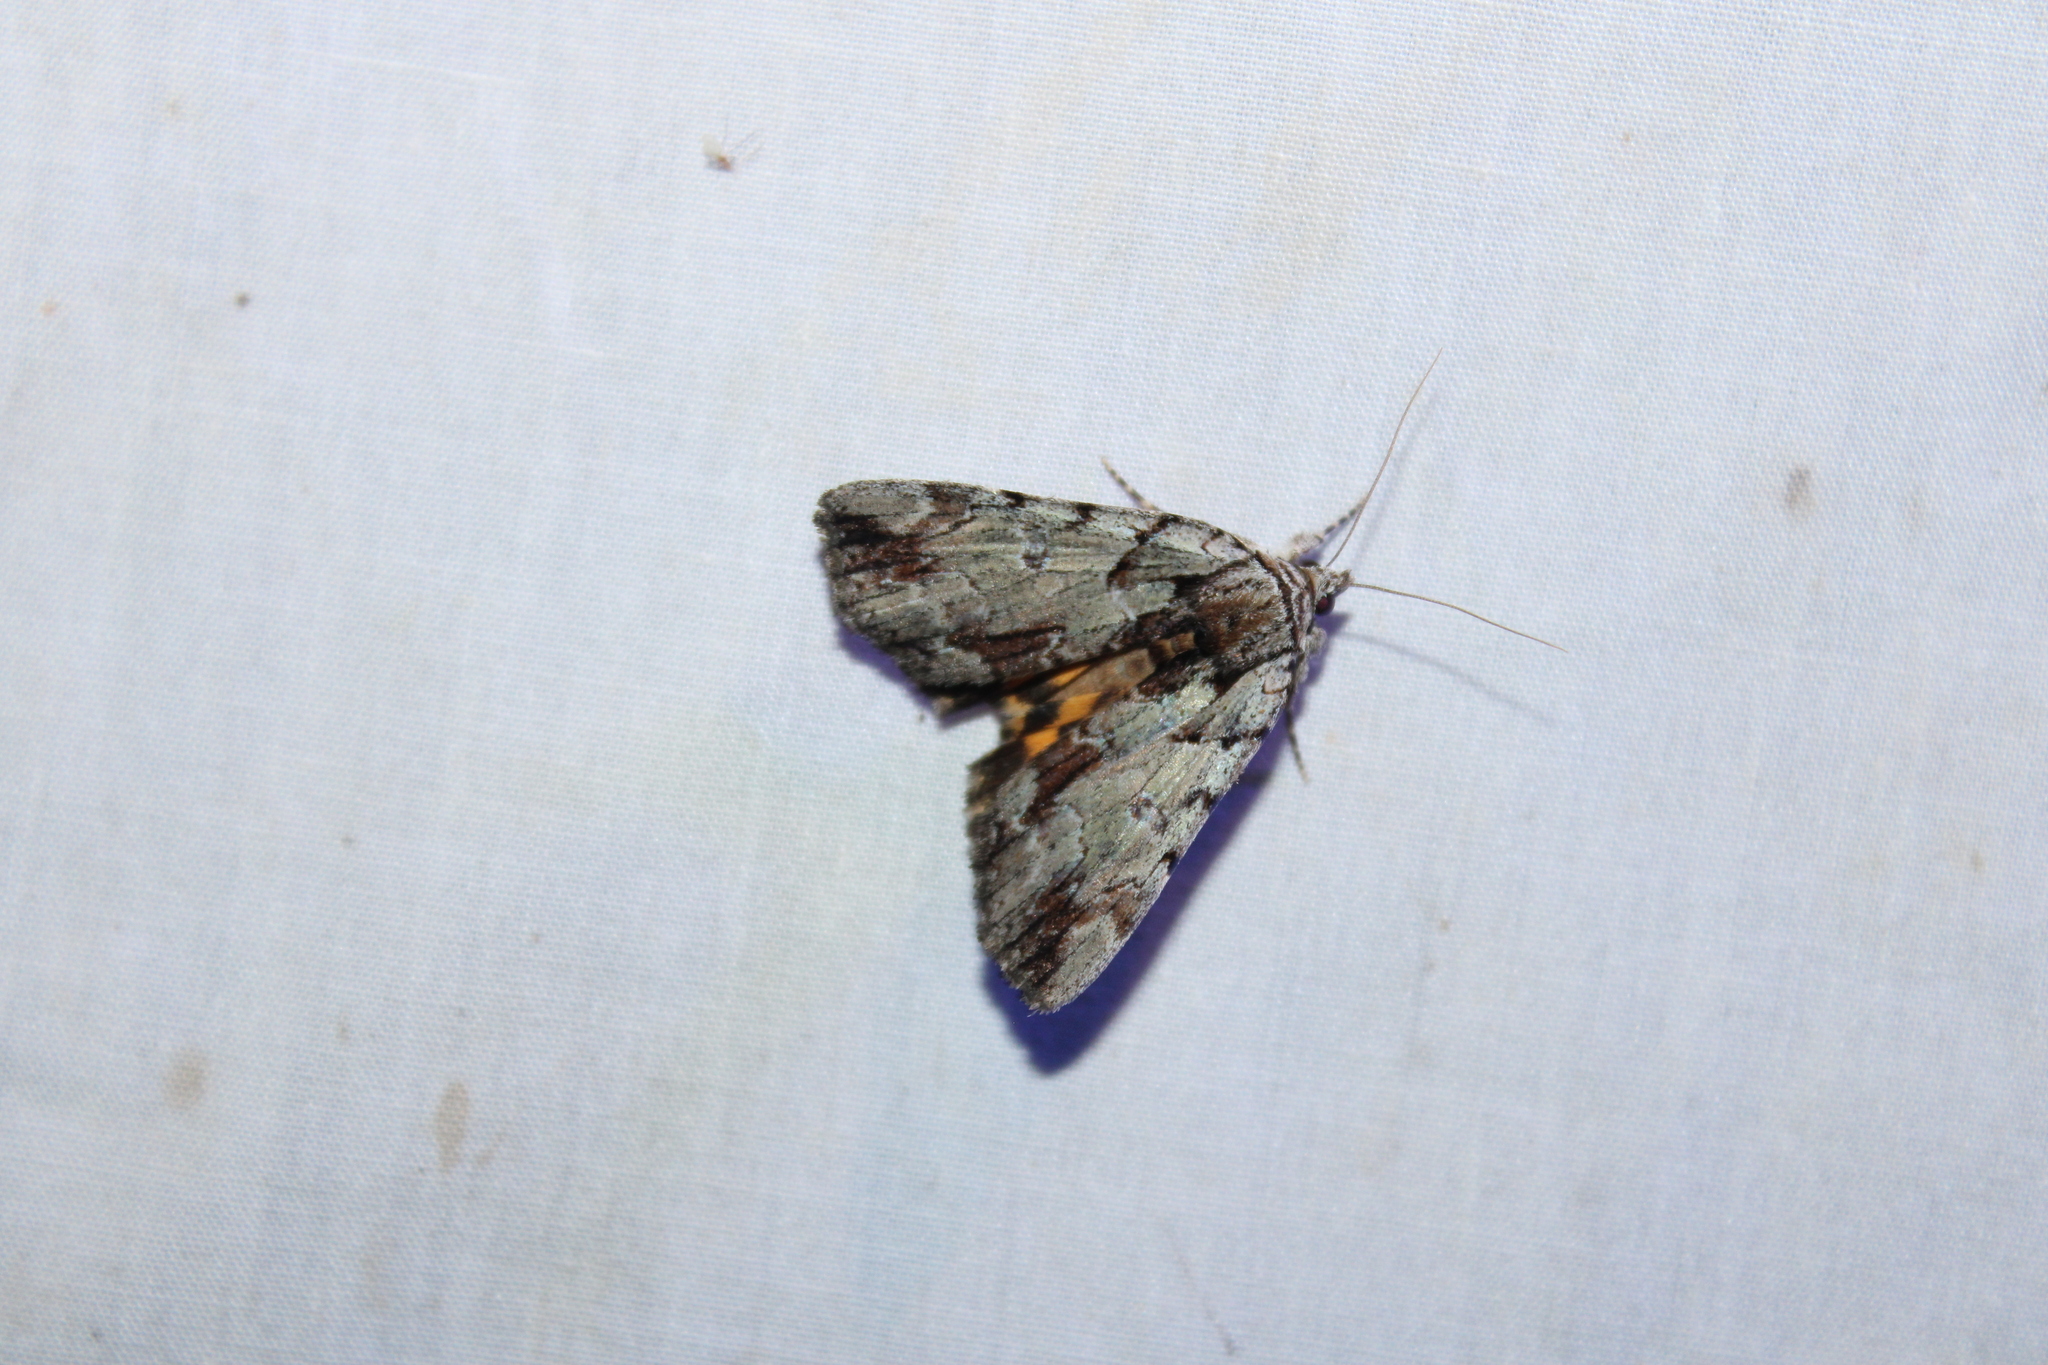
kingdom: Animalia
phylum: Arthropoda
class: Insecta
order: Lepidoptera
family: Erebidae
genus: Catocala
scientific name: Catocala praeclara
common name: Praeclara underwing
